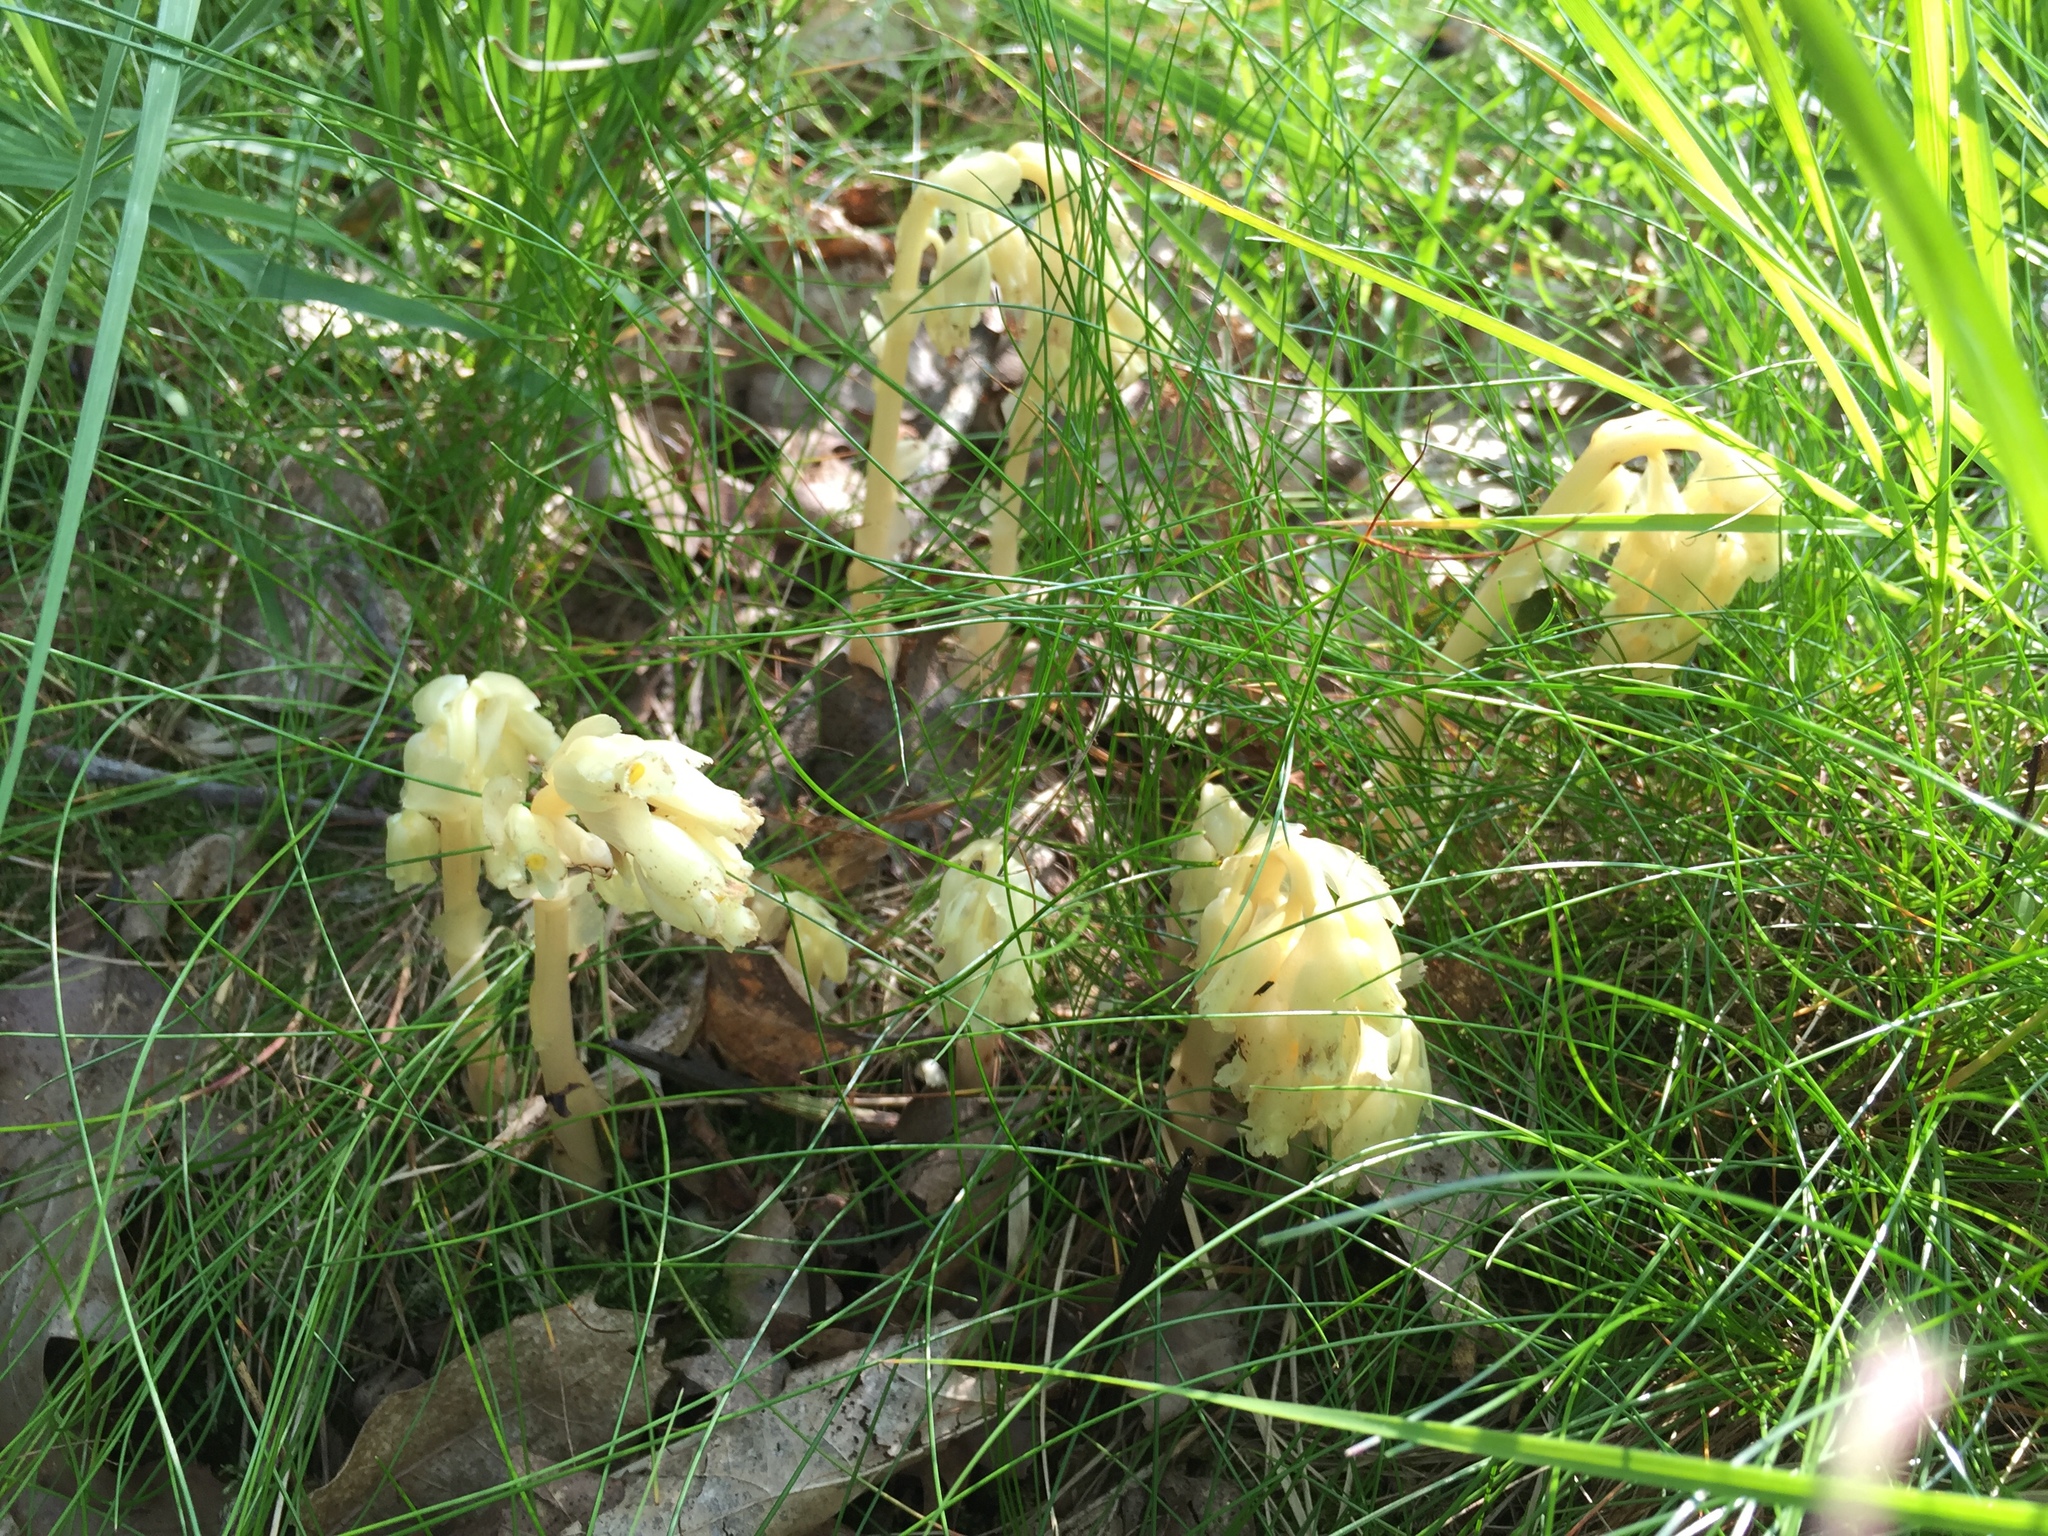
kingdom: Plantae
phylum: Tracheophyta
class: Magnoliopsida
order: Ericales
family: Ericaceae
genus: Hypopitys
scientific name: Hypopitys monotropa
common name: Yellow bird's-nest
